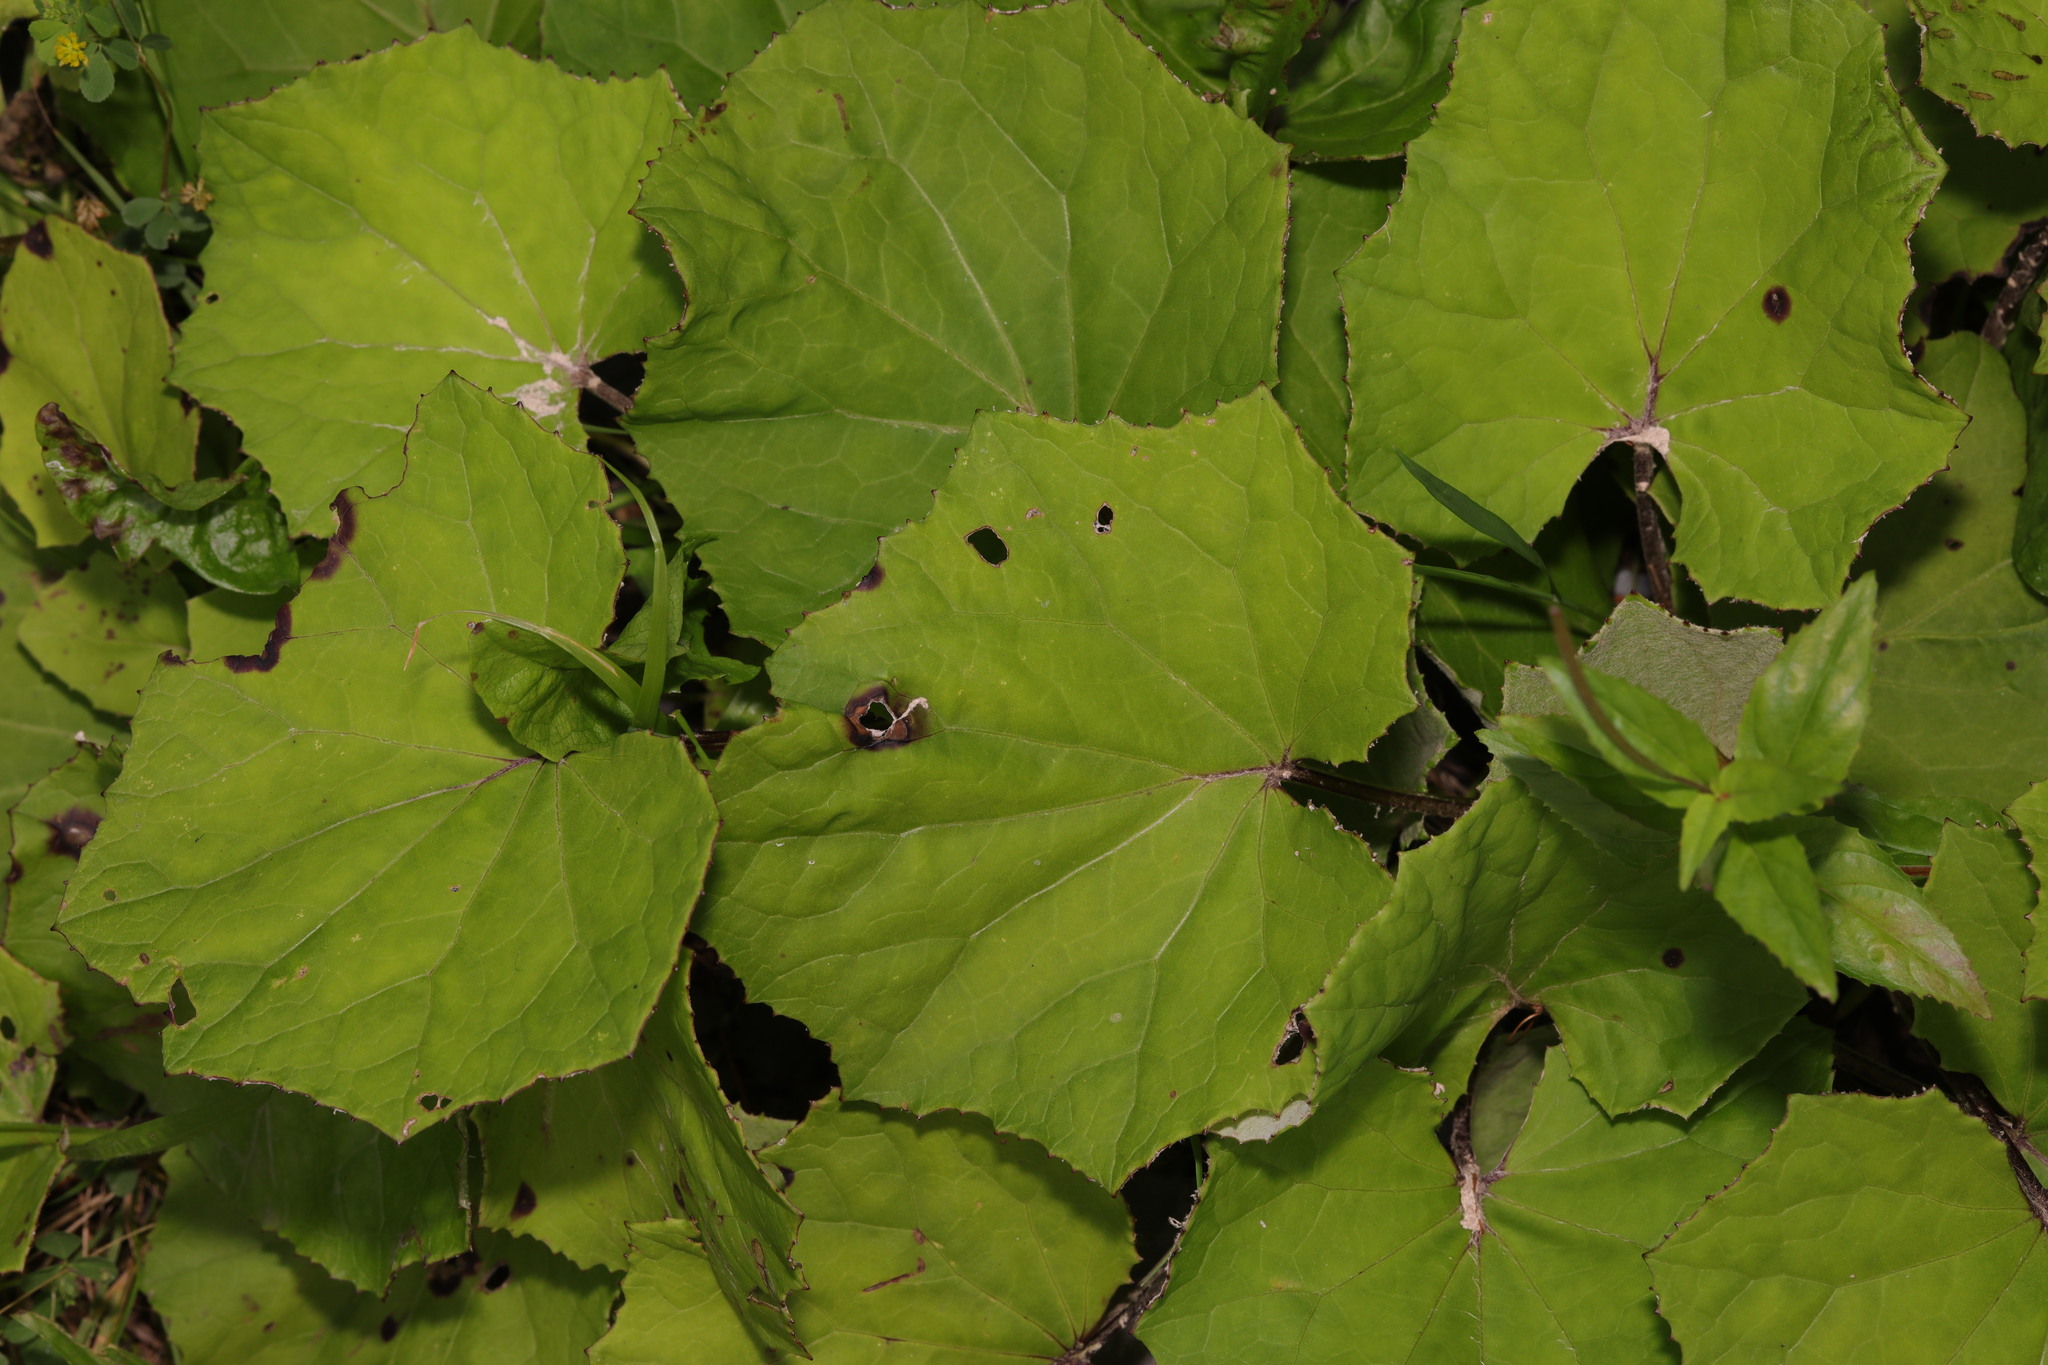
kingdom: Plantae
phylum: Tracheophyta
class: Magnoliopsida
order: Asterales
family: Asteraceae
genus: Tussilago
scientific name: Tussilago farfara
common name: Coltsfoot
